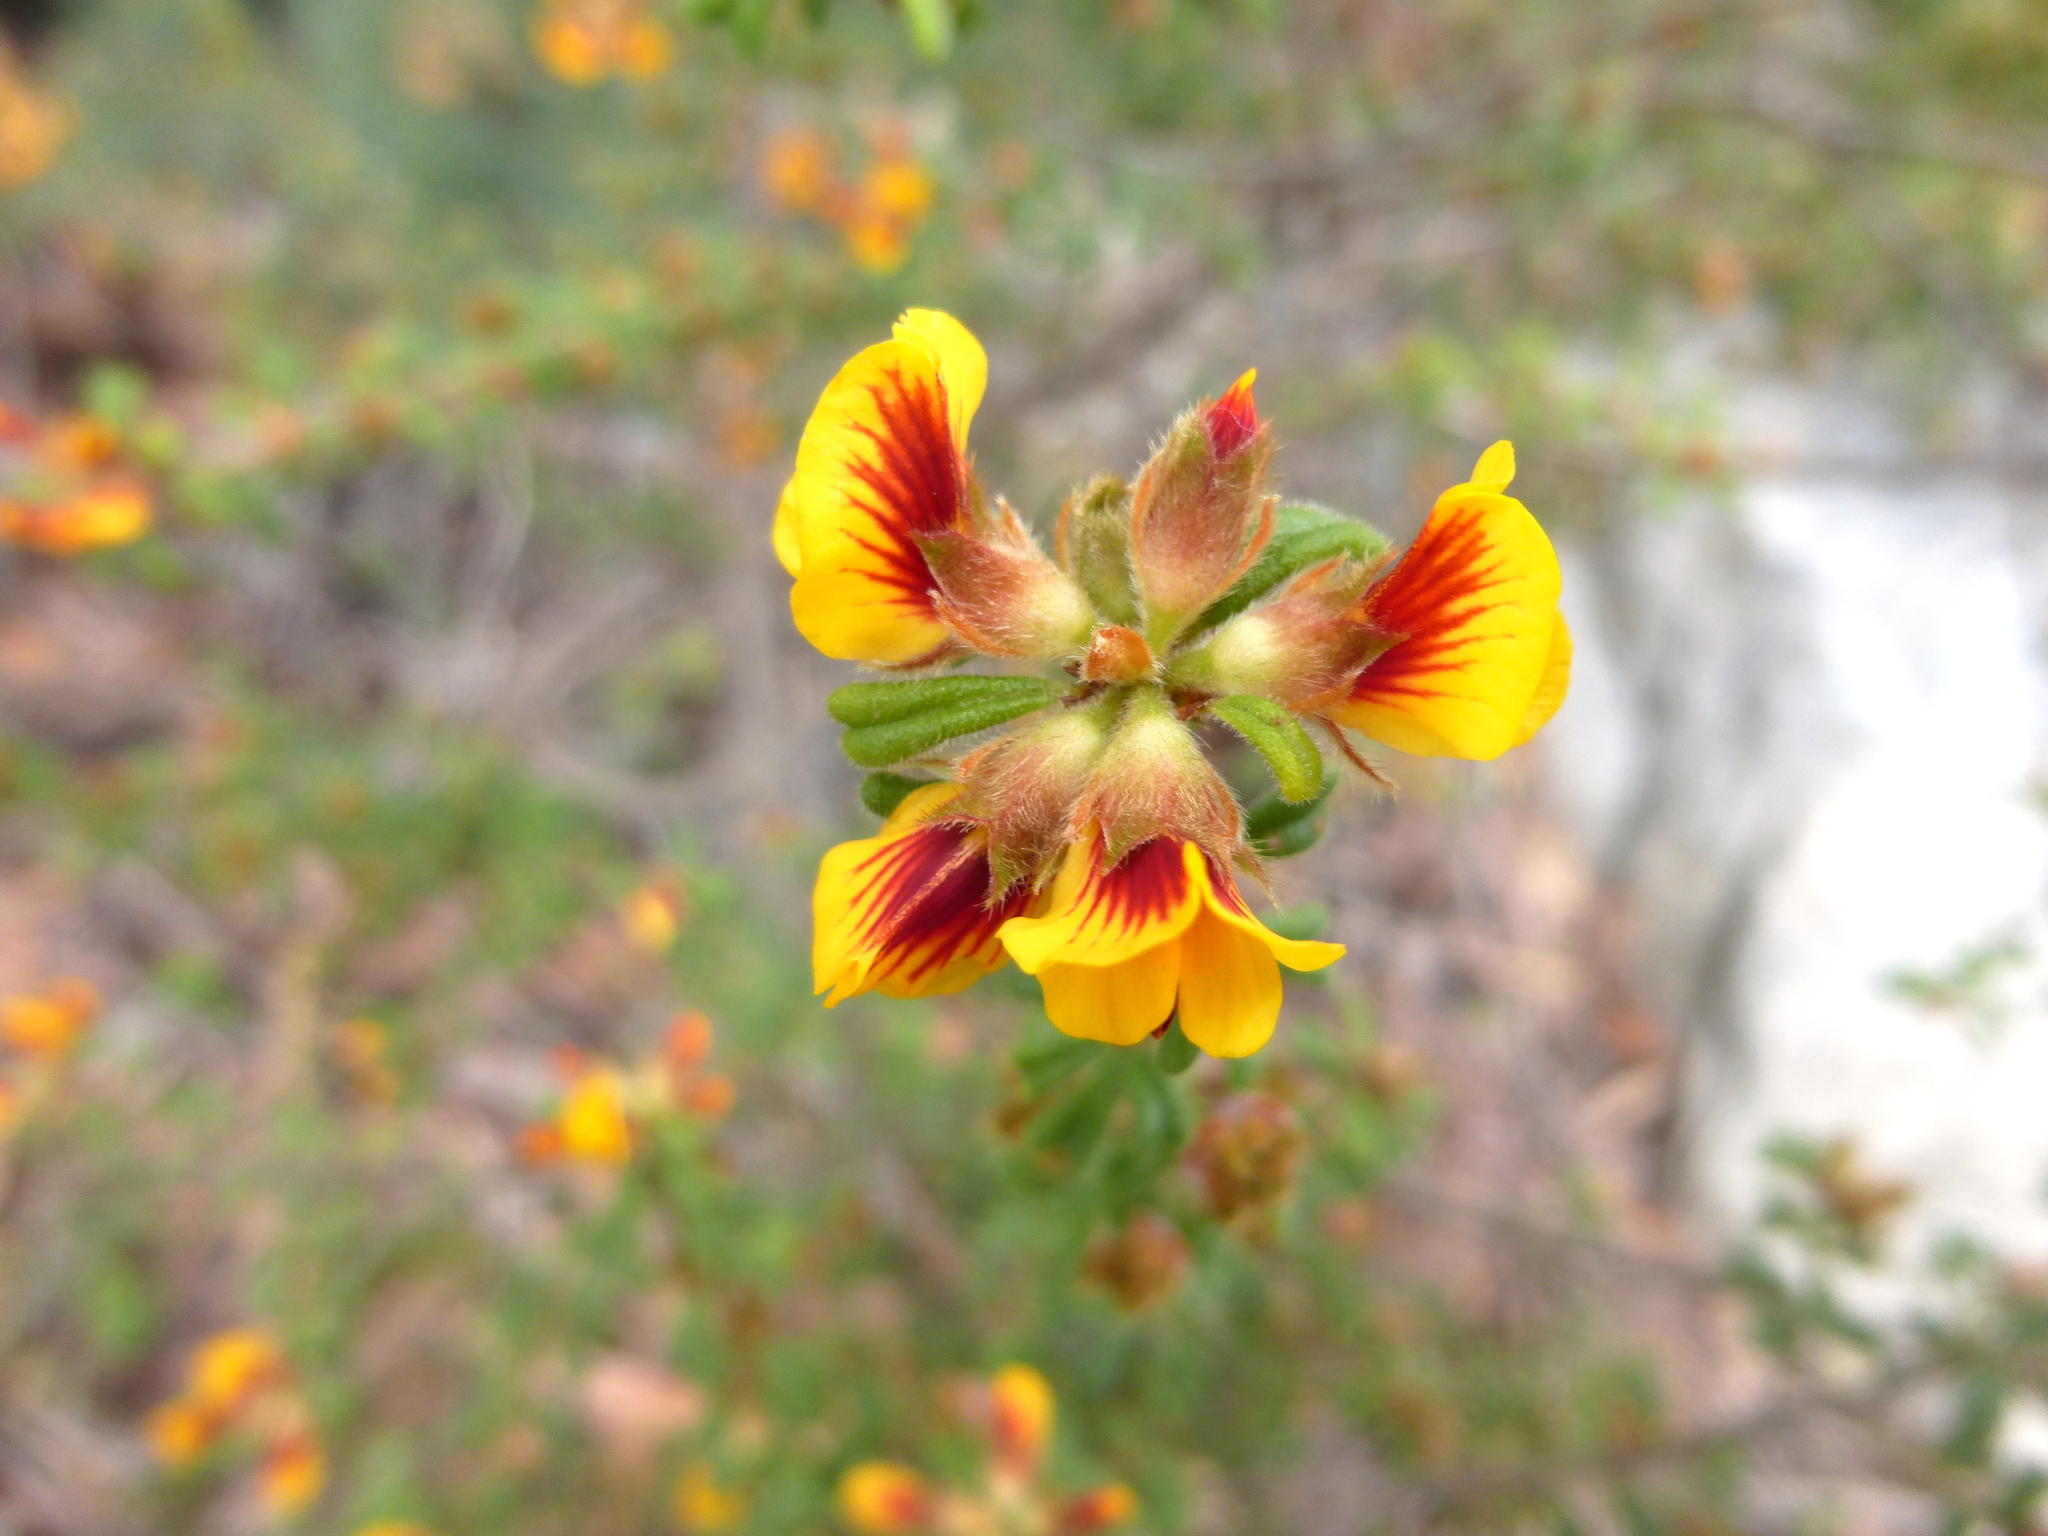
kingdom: Plantae
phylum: Tracheophyta
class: Magnoliopsida
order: Fabales
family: Fabaceae
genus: Pultenaea
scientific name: Pultenaea scabra
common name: Rough bush-pea
